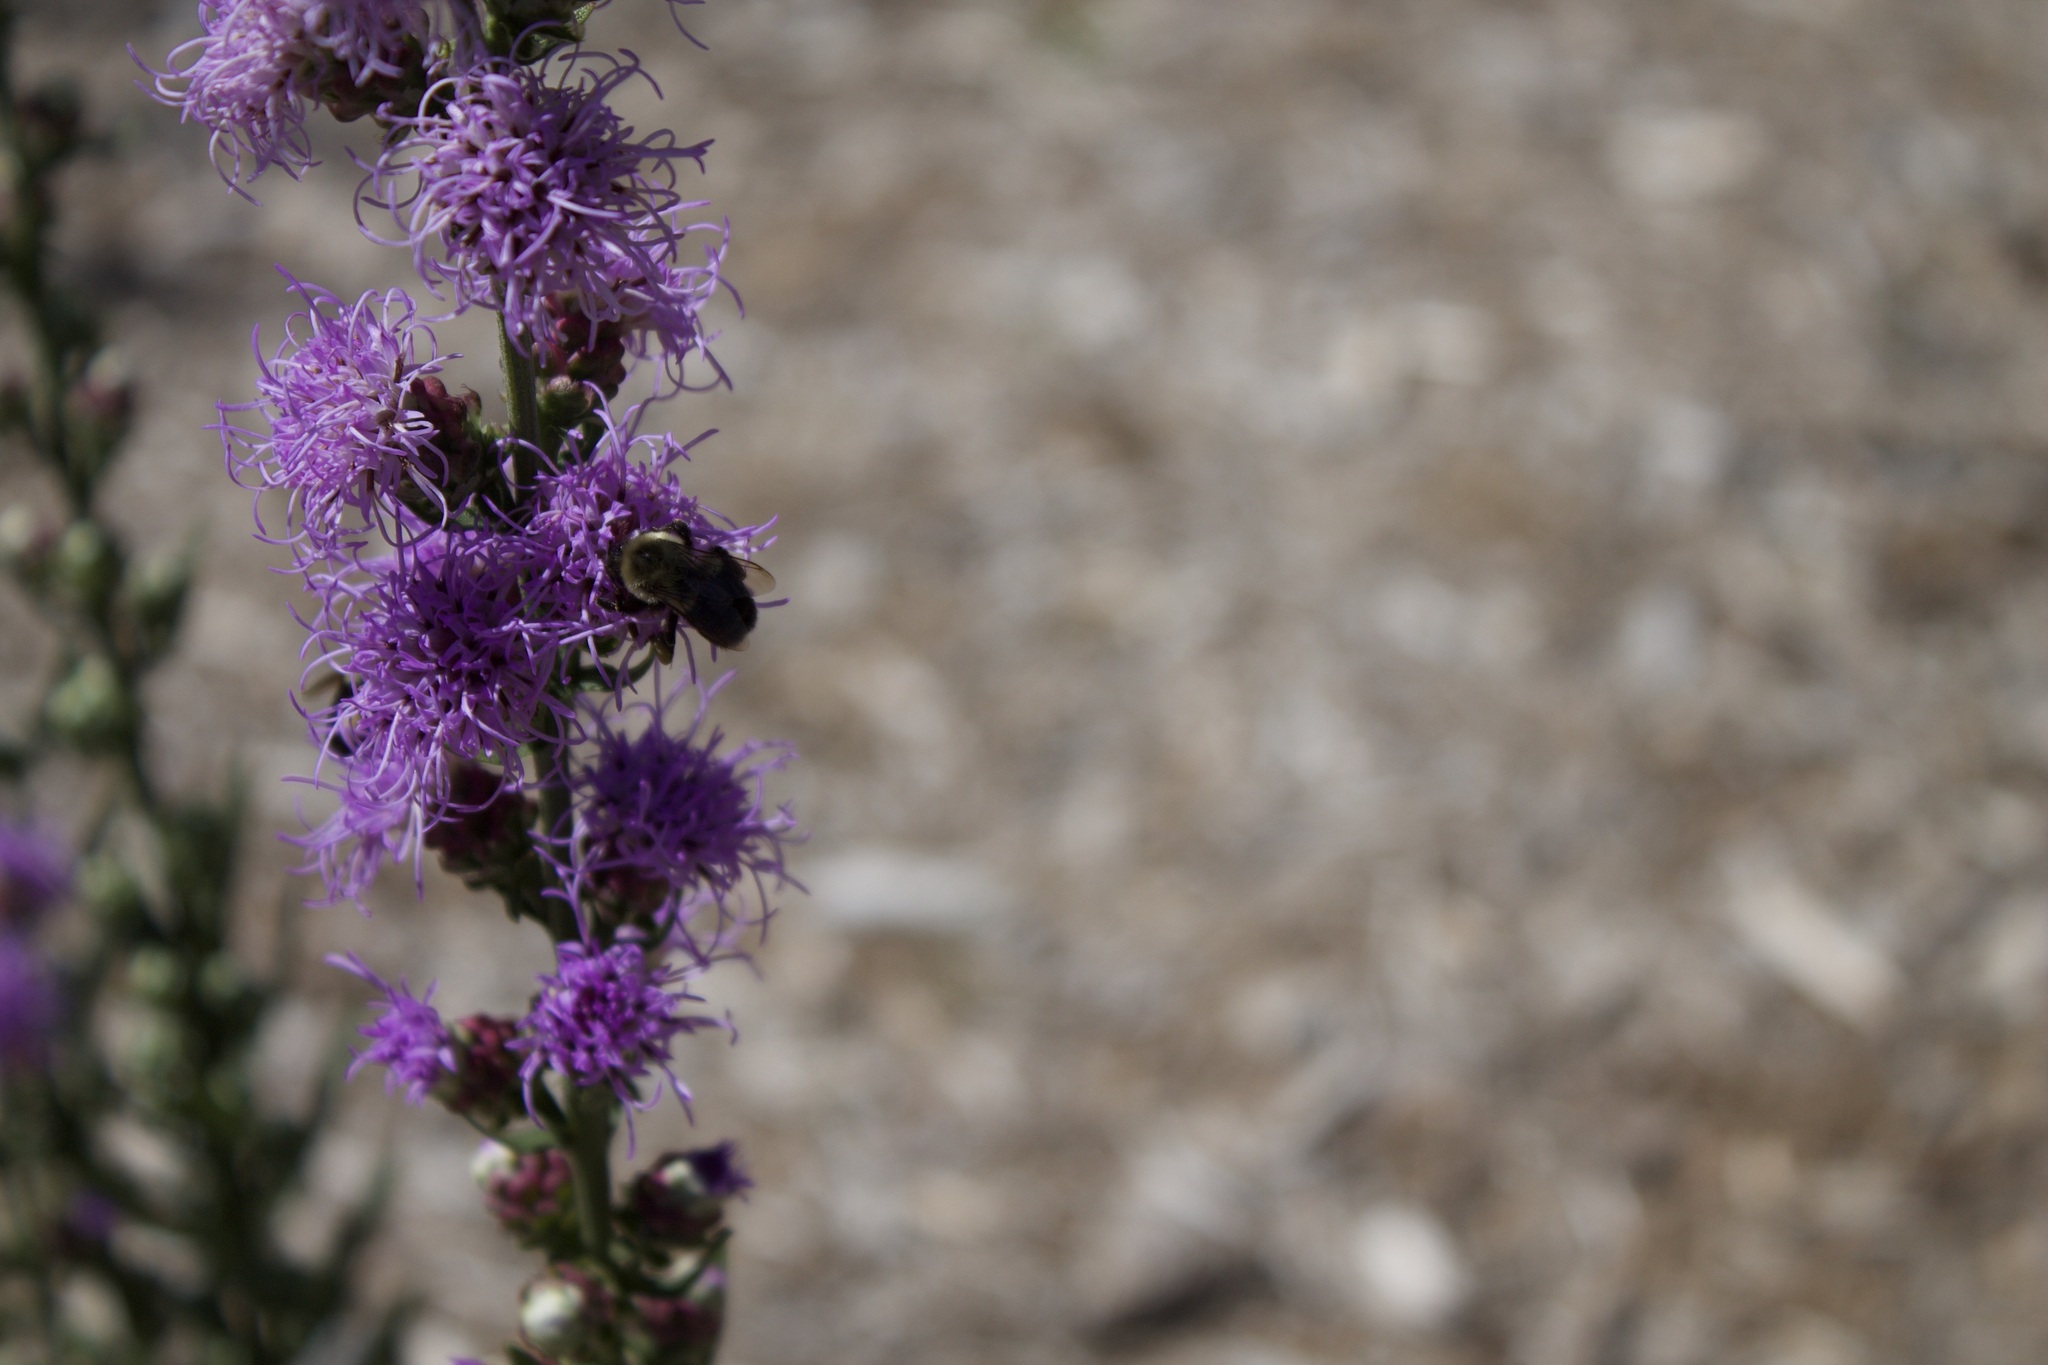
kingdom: Animalia
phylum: Arthropoda
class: Insecta
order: Hymenoptera
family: Apidae
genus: Bombus
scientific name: Bombus impatiens
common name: Common eastern bumble bee
